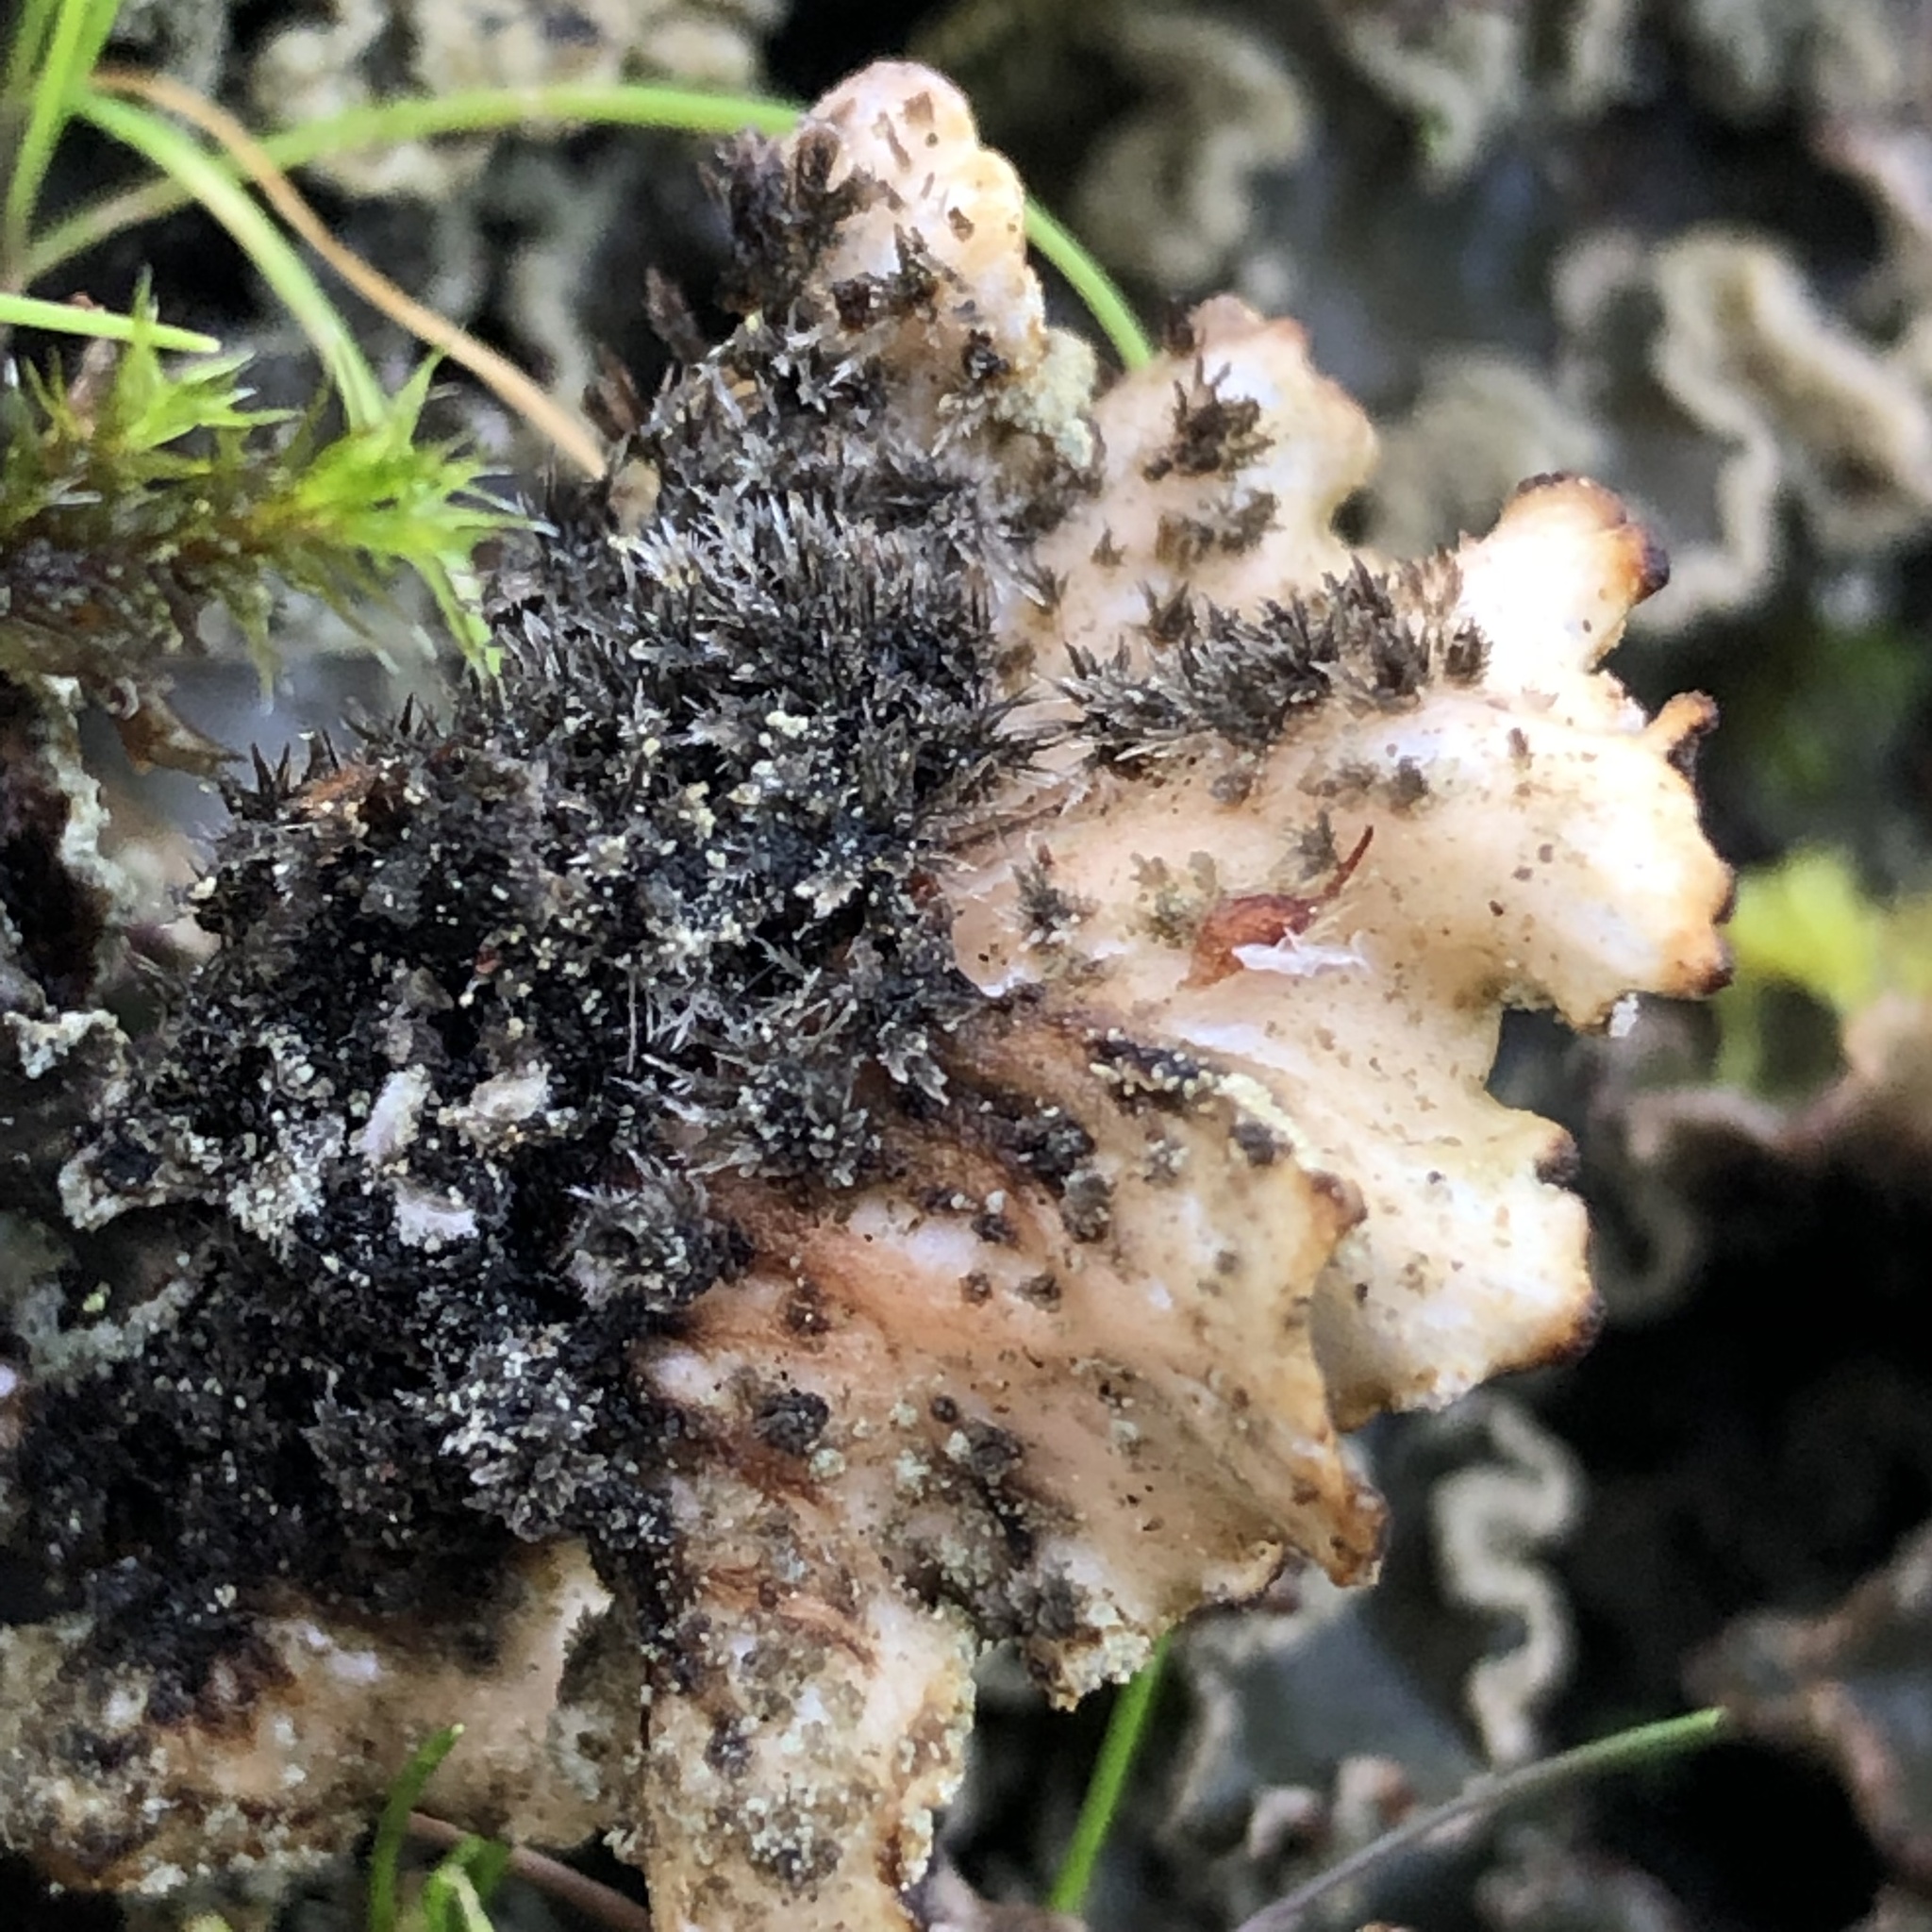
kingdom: Fungi
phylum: Ascomycota
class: Lecanoromycetes
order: Peltigerales
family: Peltigeraceae
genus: Peltigera
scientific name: Peltigera collina
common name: Gritty tree pelt lichen
